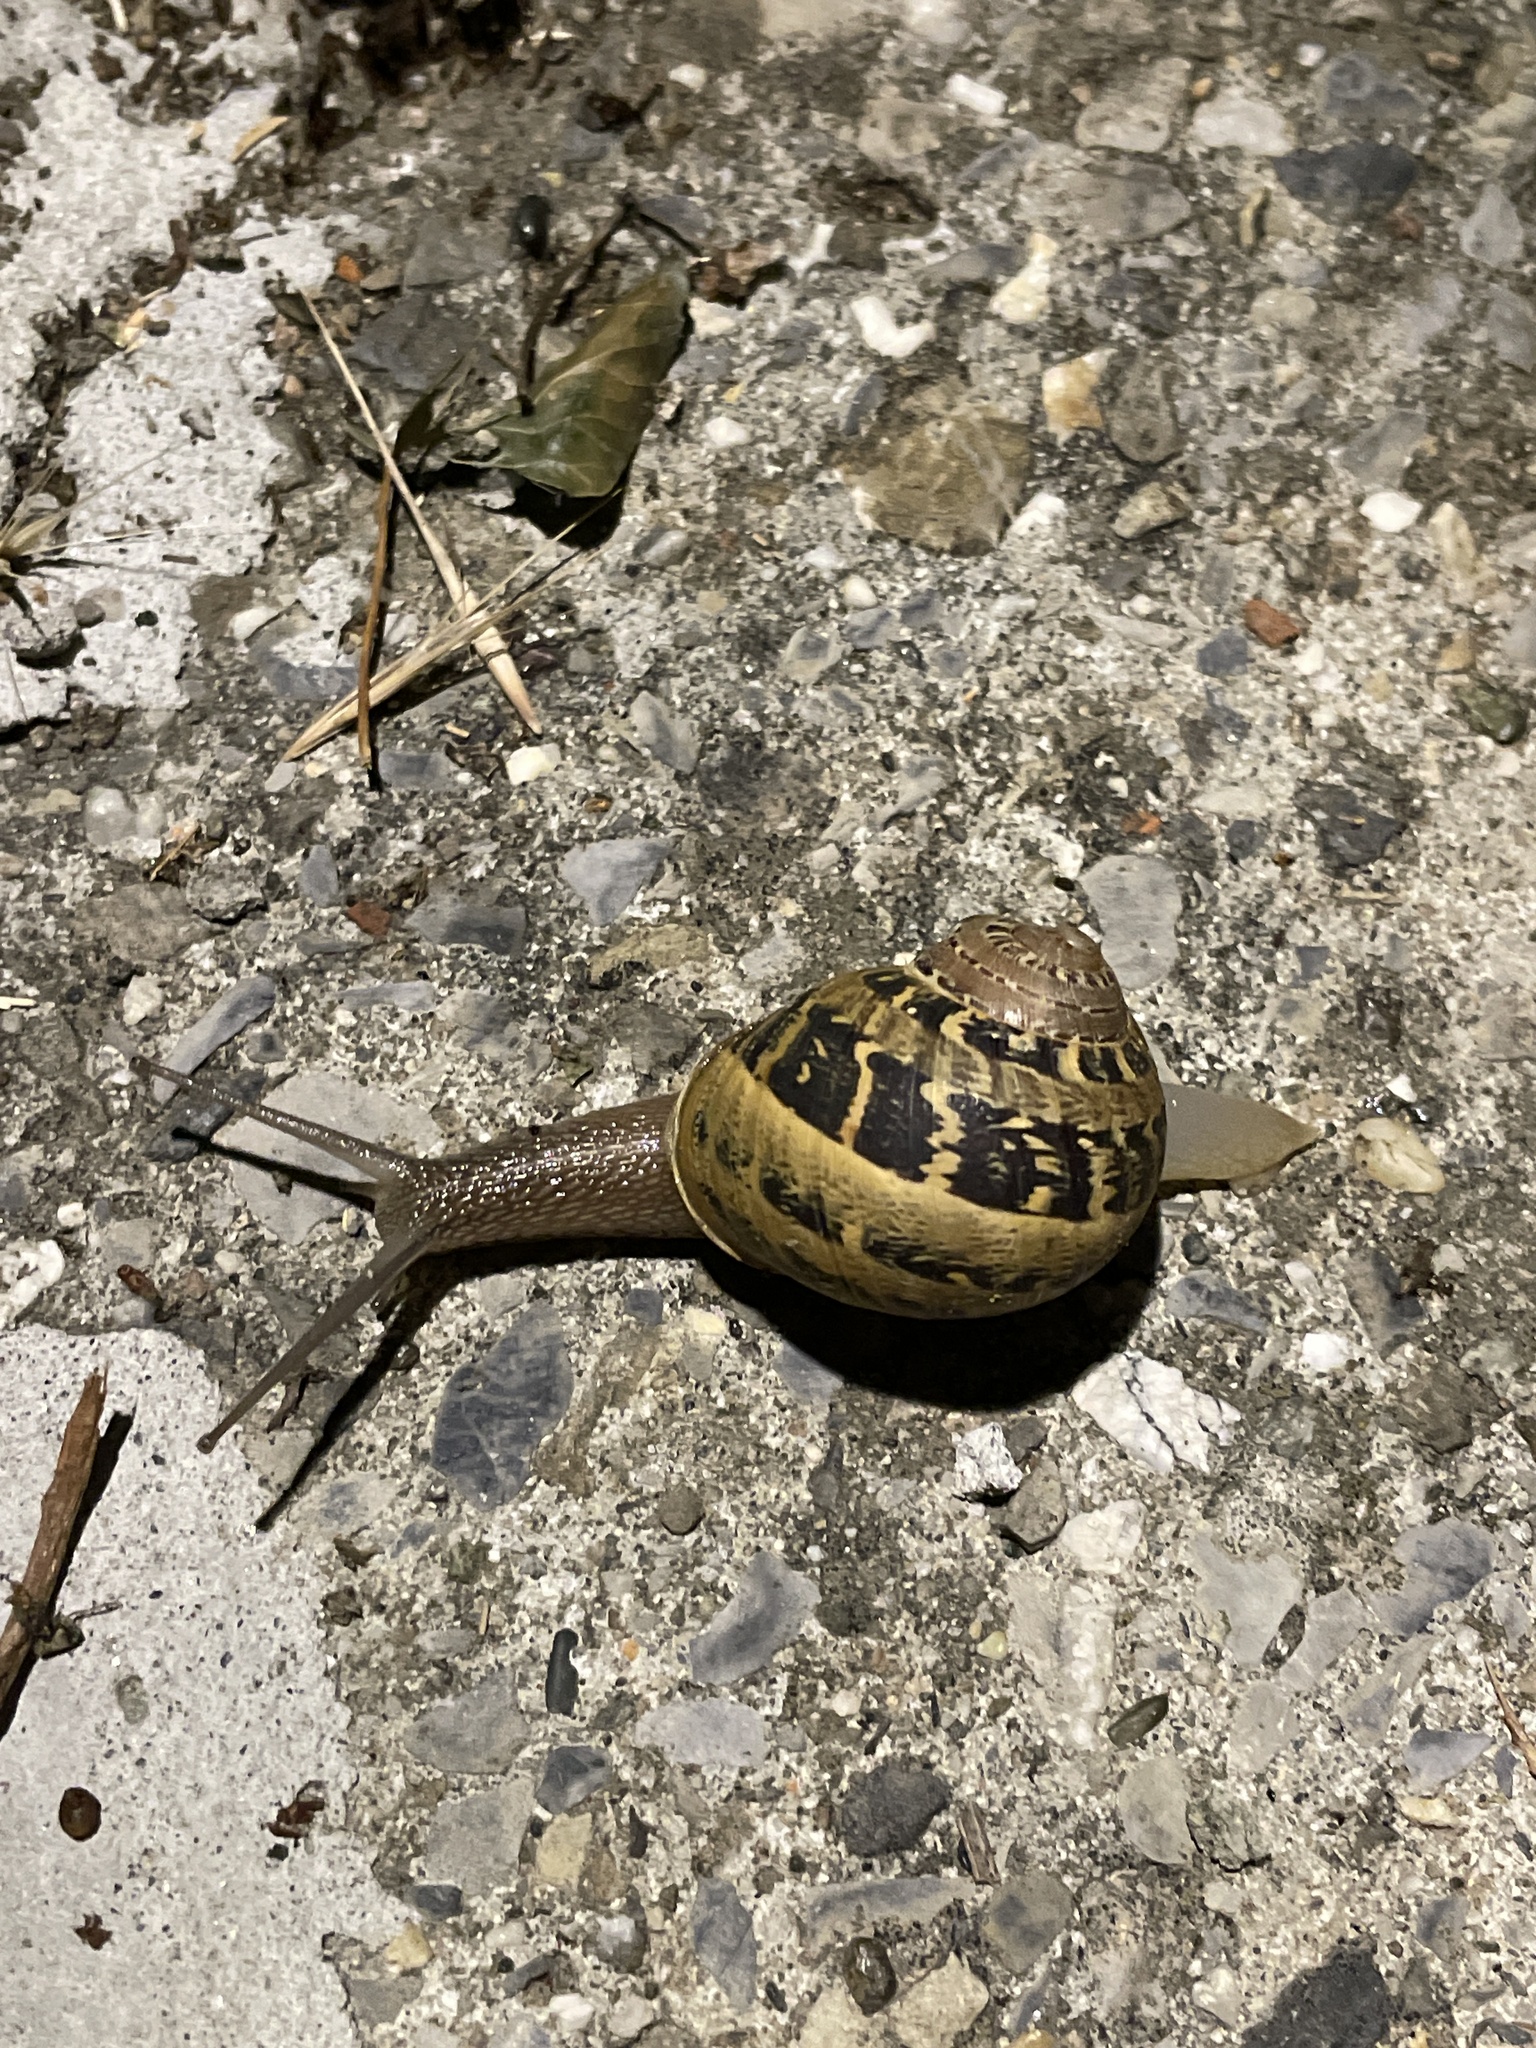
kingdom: Animalia
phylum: Mollusca
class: Gastropoda
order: Stylommatophora
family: Helicidae
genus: Cornu
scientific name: Cornu aspersum
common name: Brown garden snail
